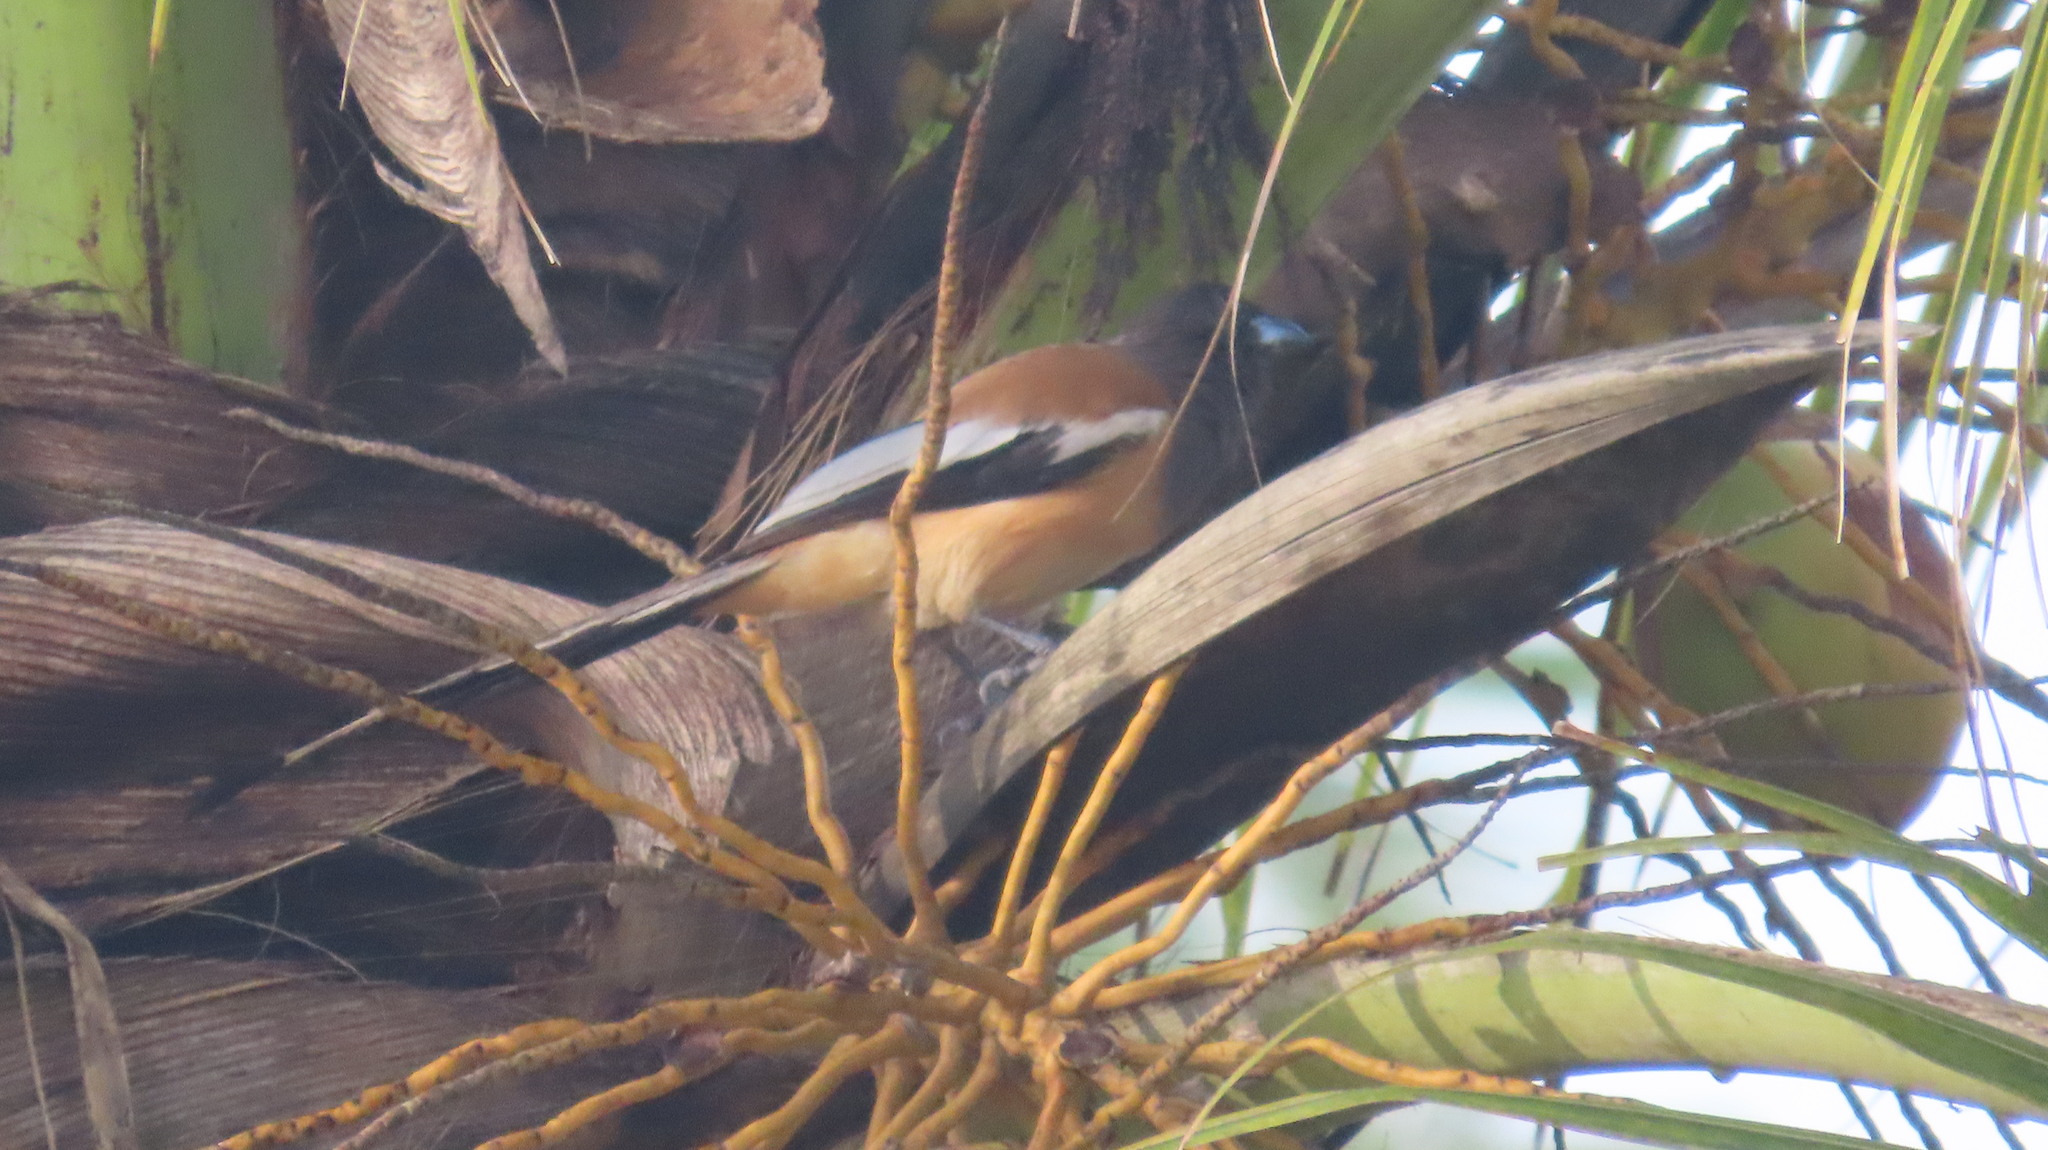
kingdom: Animalia
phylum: Chordata
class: Aves
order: Passeriformes
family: Corvidae
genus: Dendrocitta
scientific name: Dendrocitta vagabunda
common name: Rufous treepie
